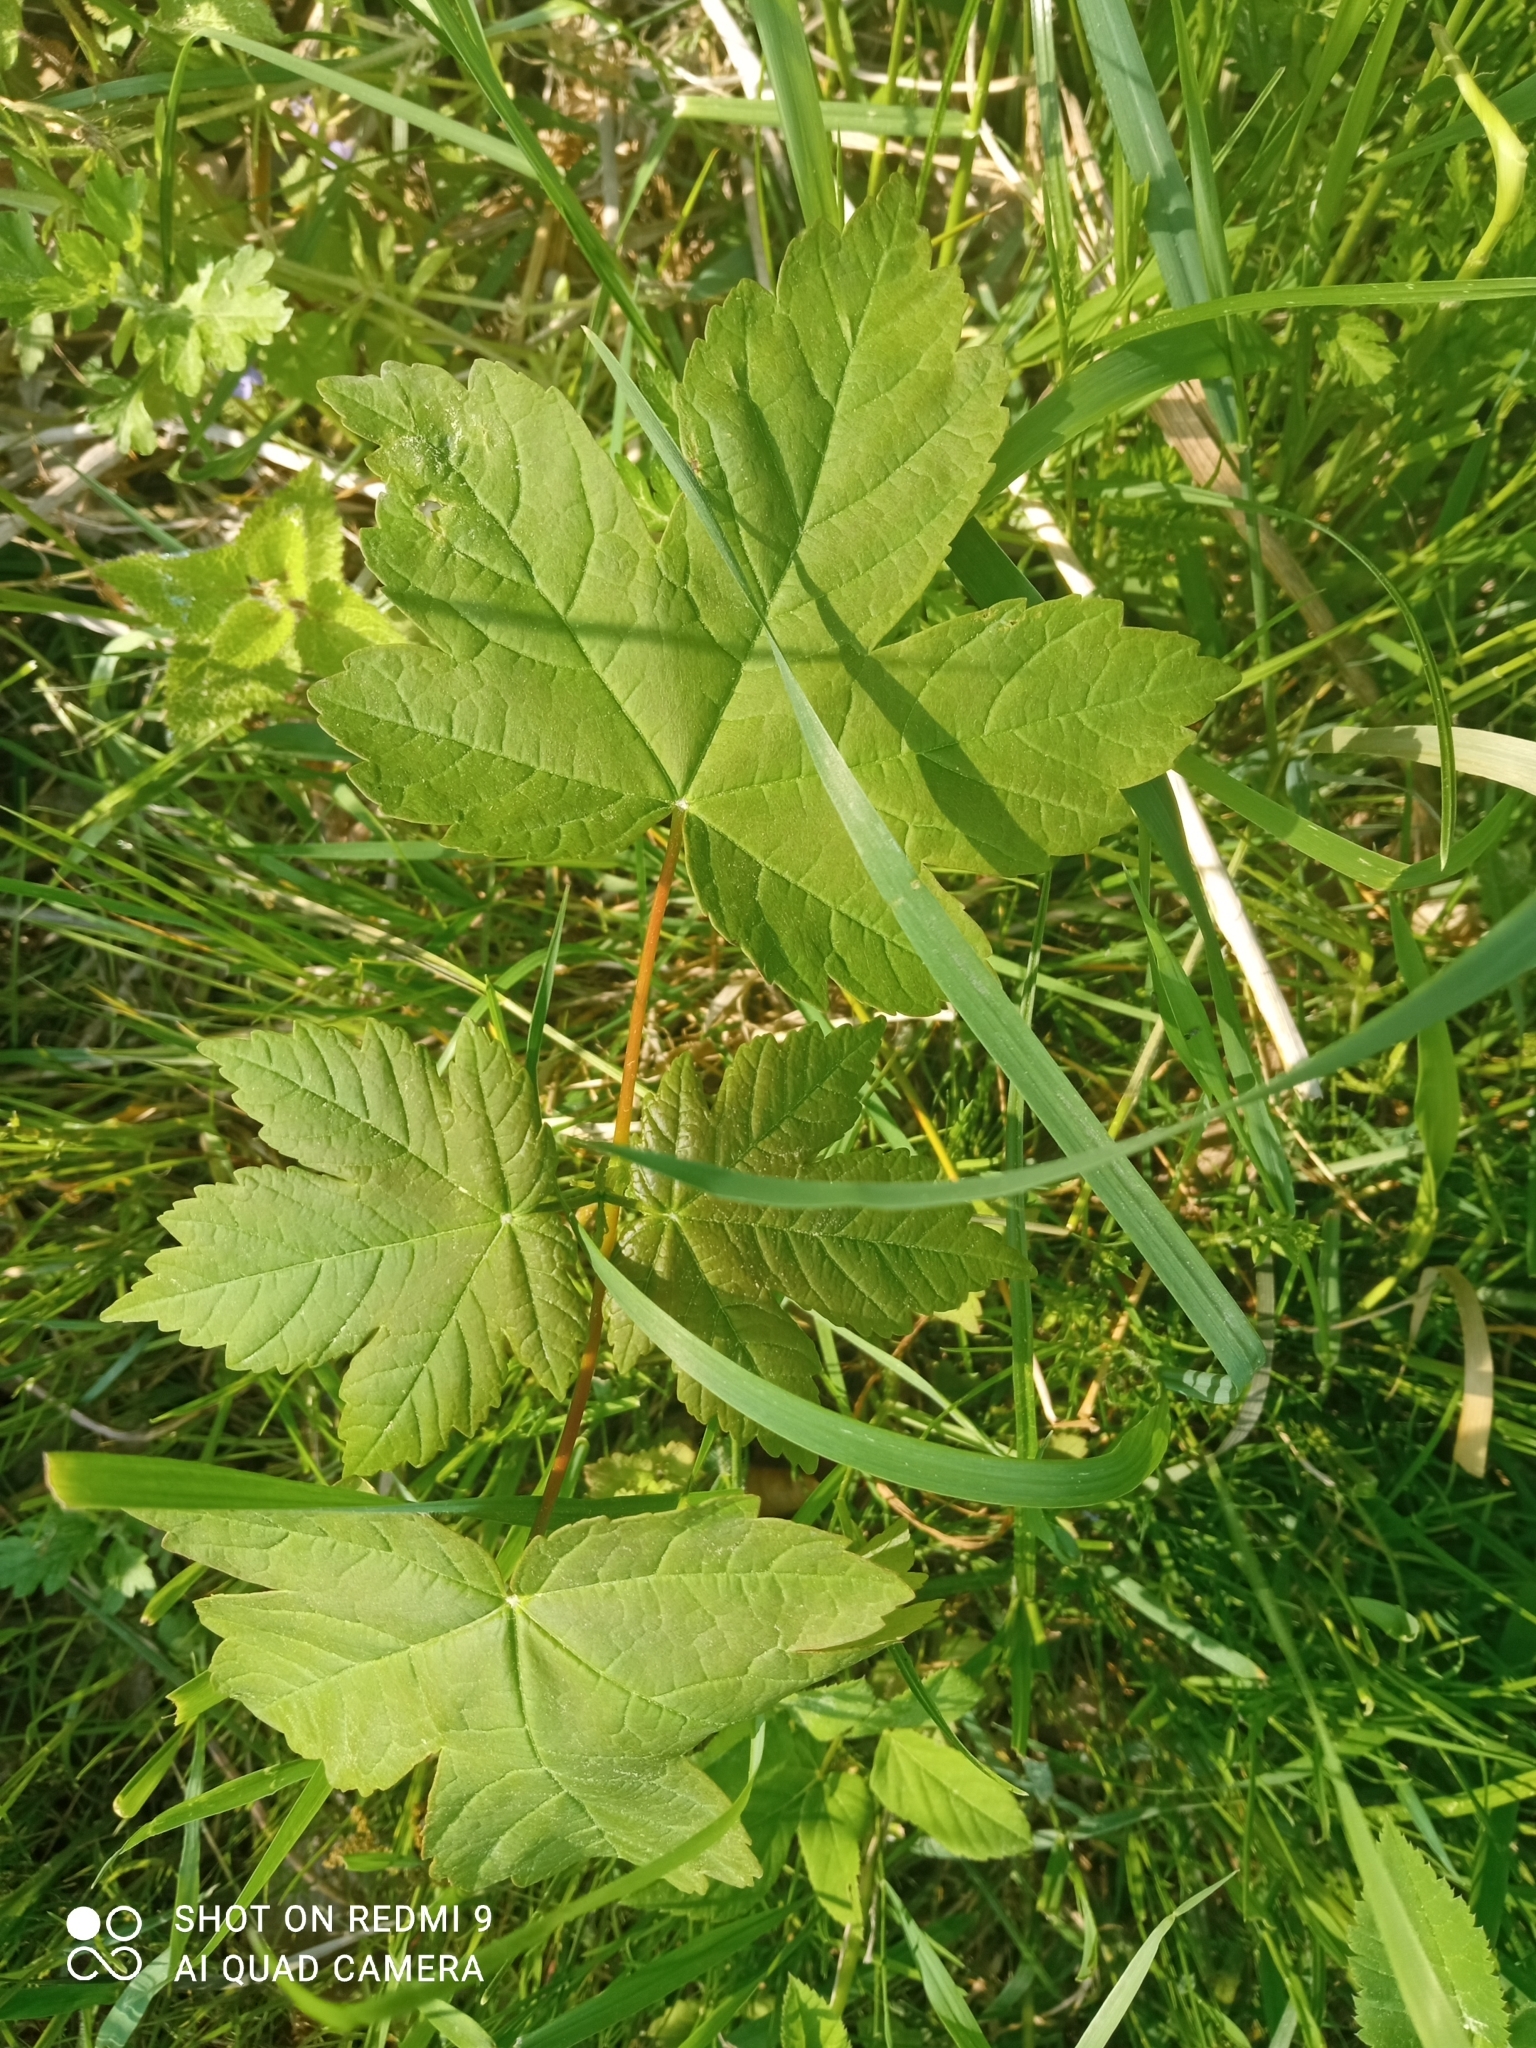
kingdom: Plantae
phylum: Tracheophyta
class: Magnoliopsida
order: Sapindales
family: Sapindaceae
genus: Acer
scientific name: Acer pseudoplatanus
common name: Sycamore
